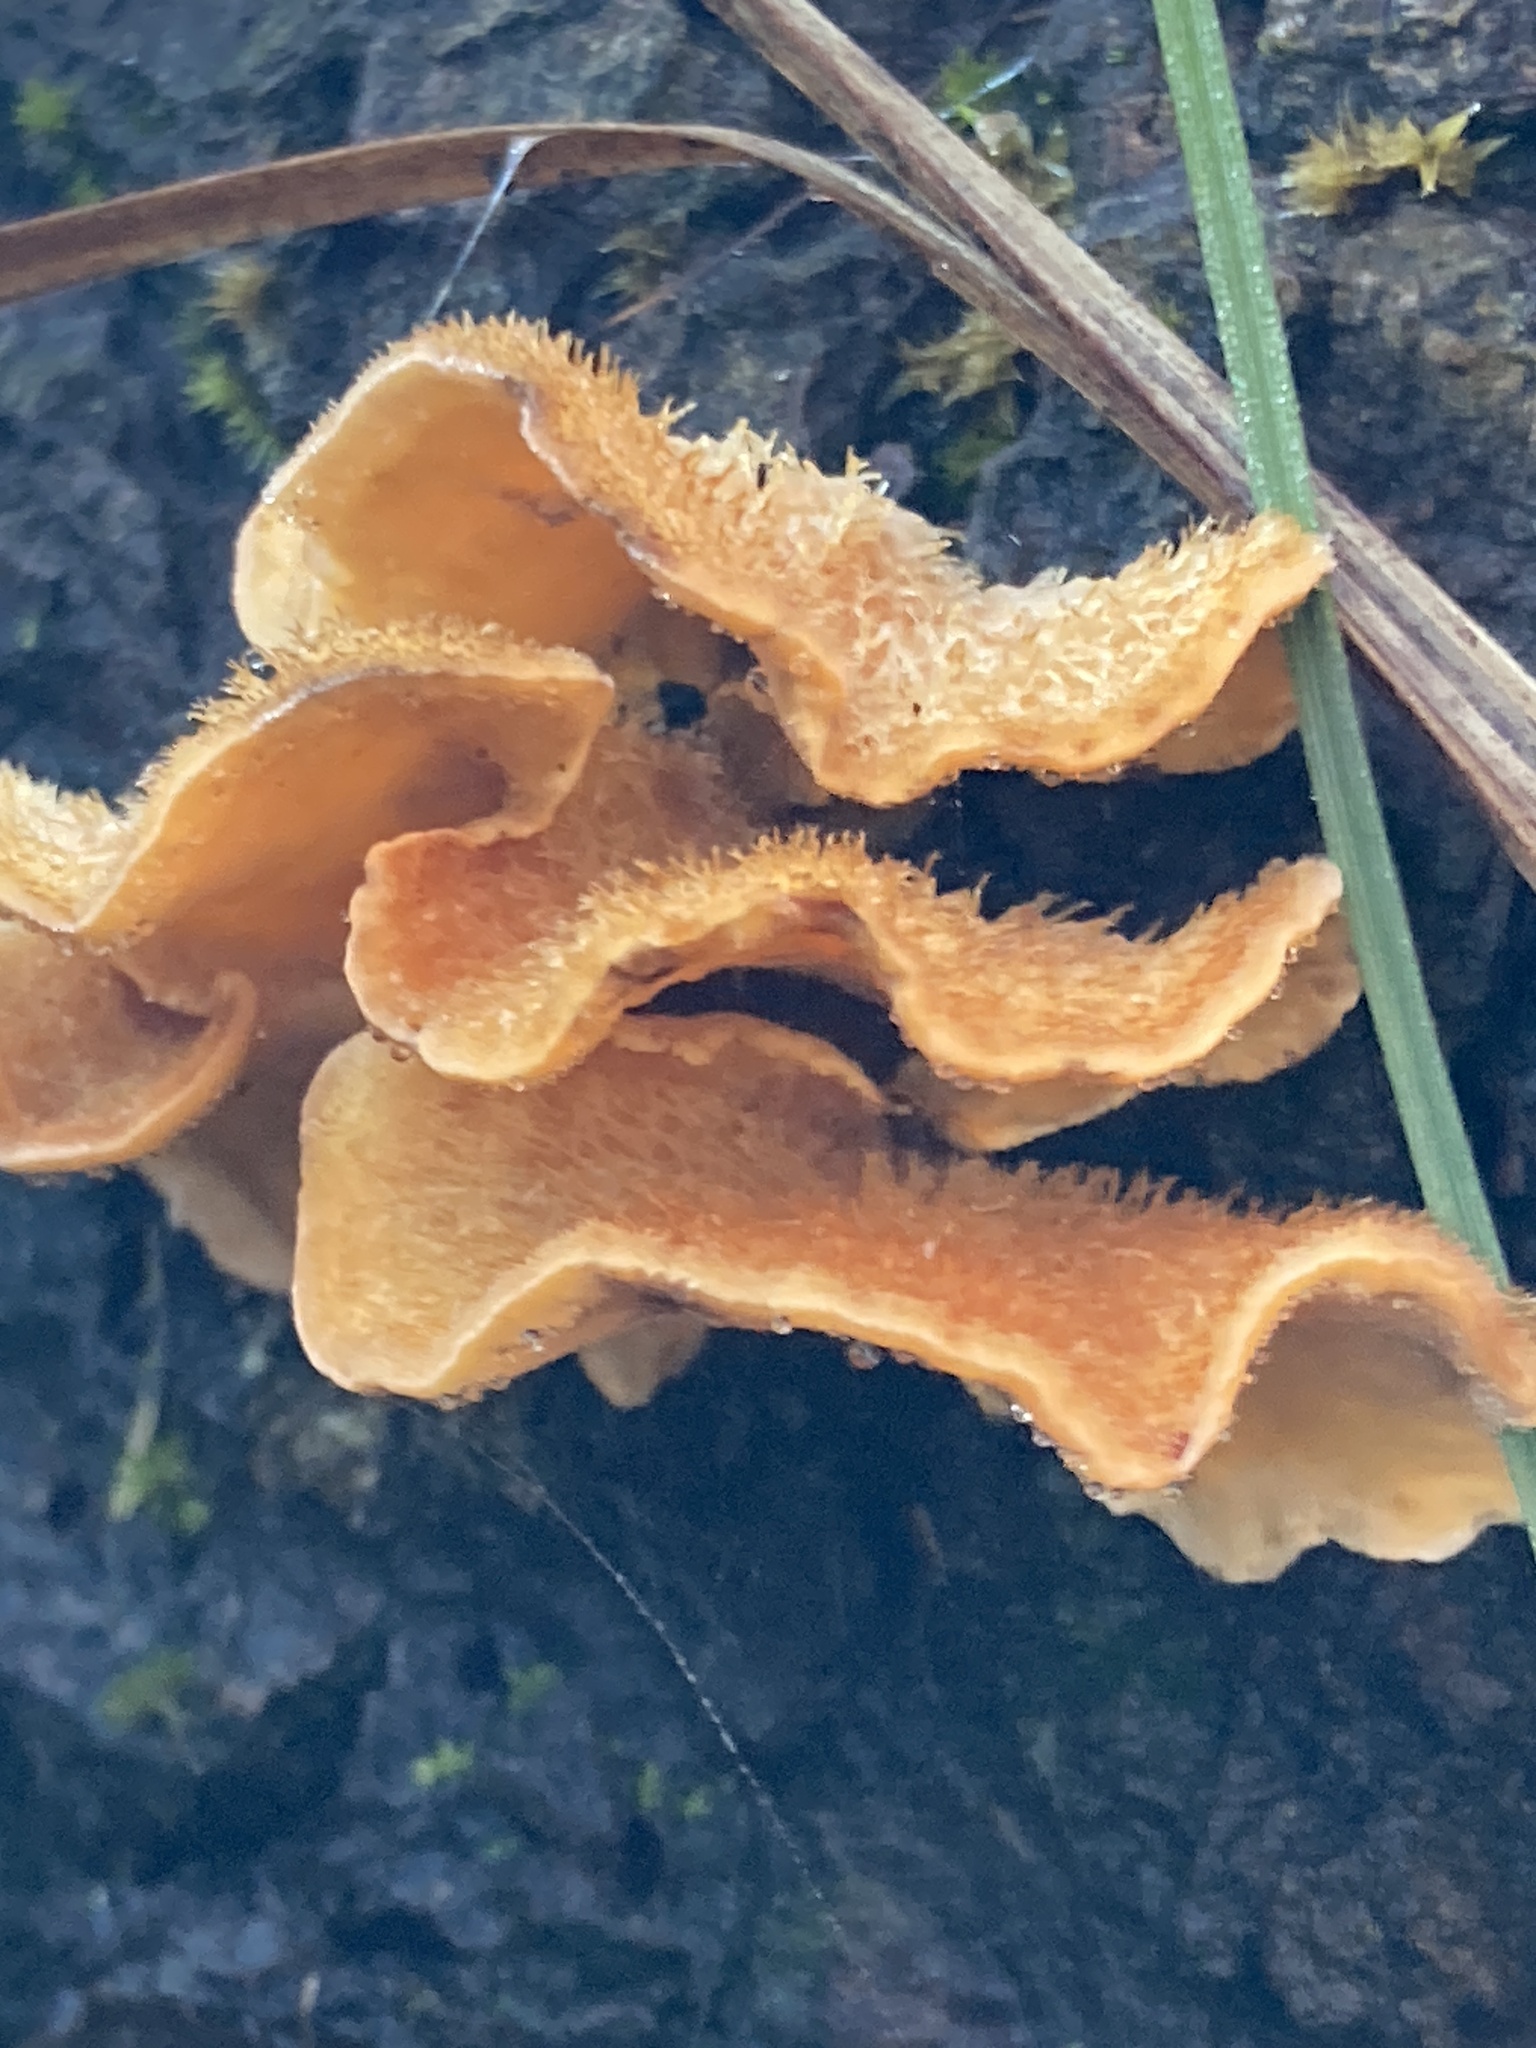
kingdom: Fungi
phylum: Basidiomycota
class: Agaricomycetes
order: Russulales
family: Stereaceae
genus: Stereum
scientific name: Stereum hirsutum
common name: Hairy curtain crust
